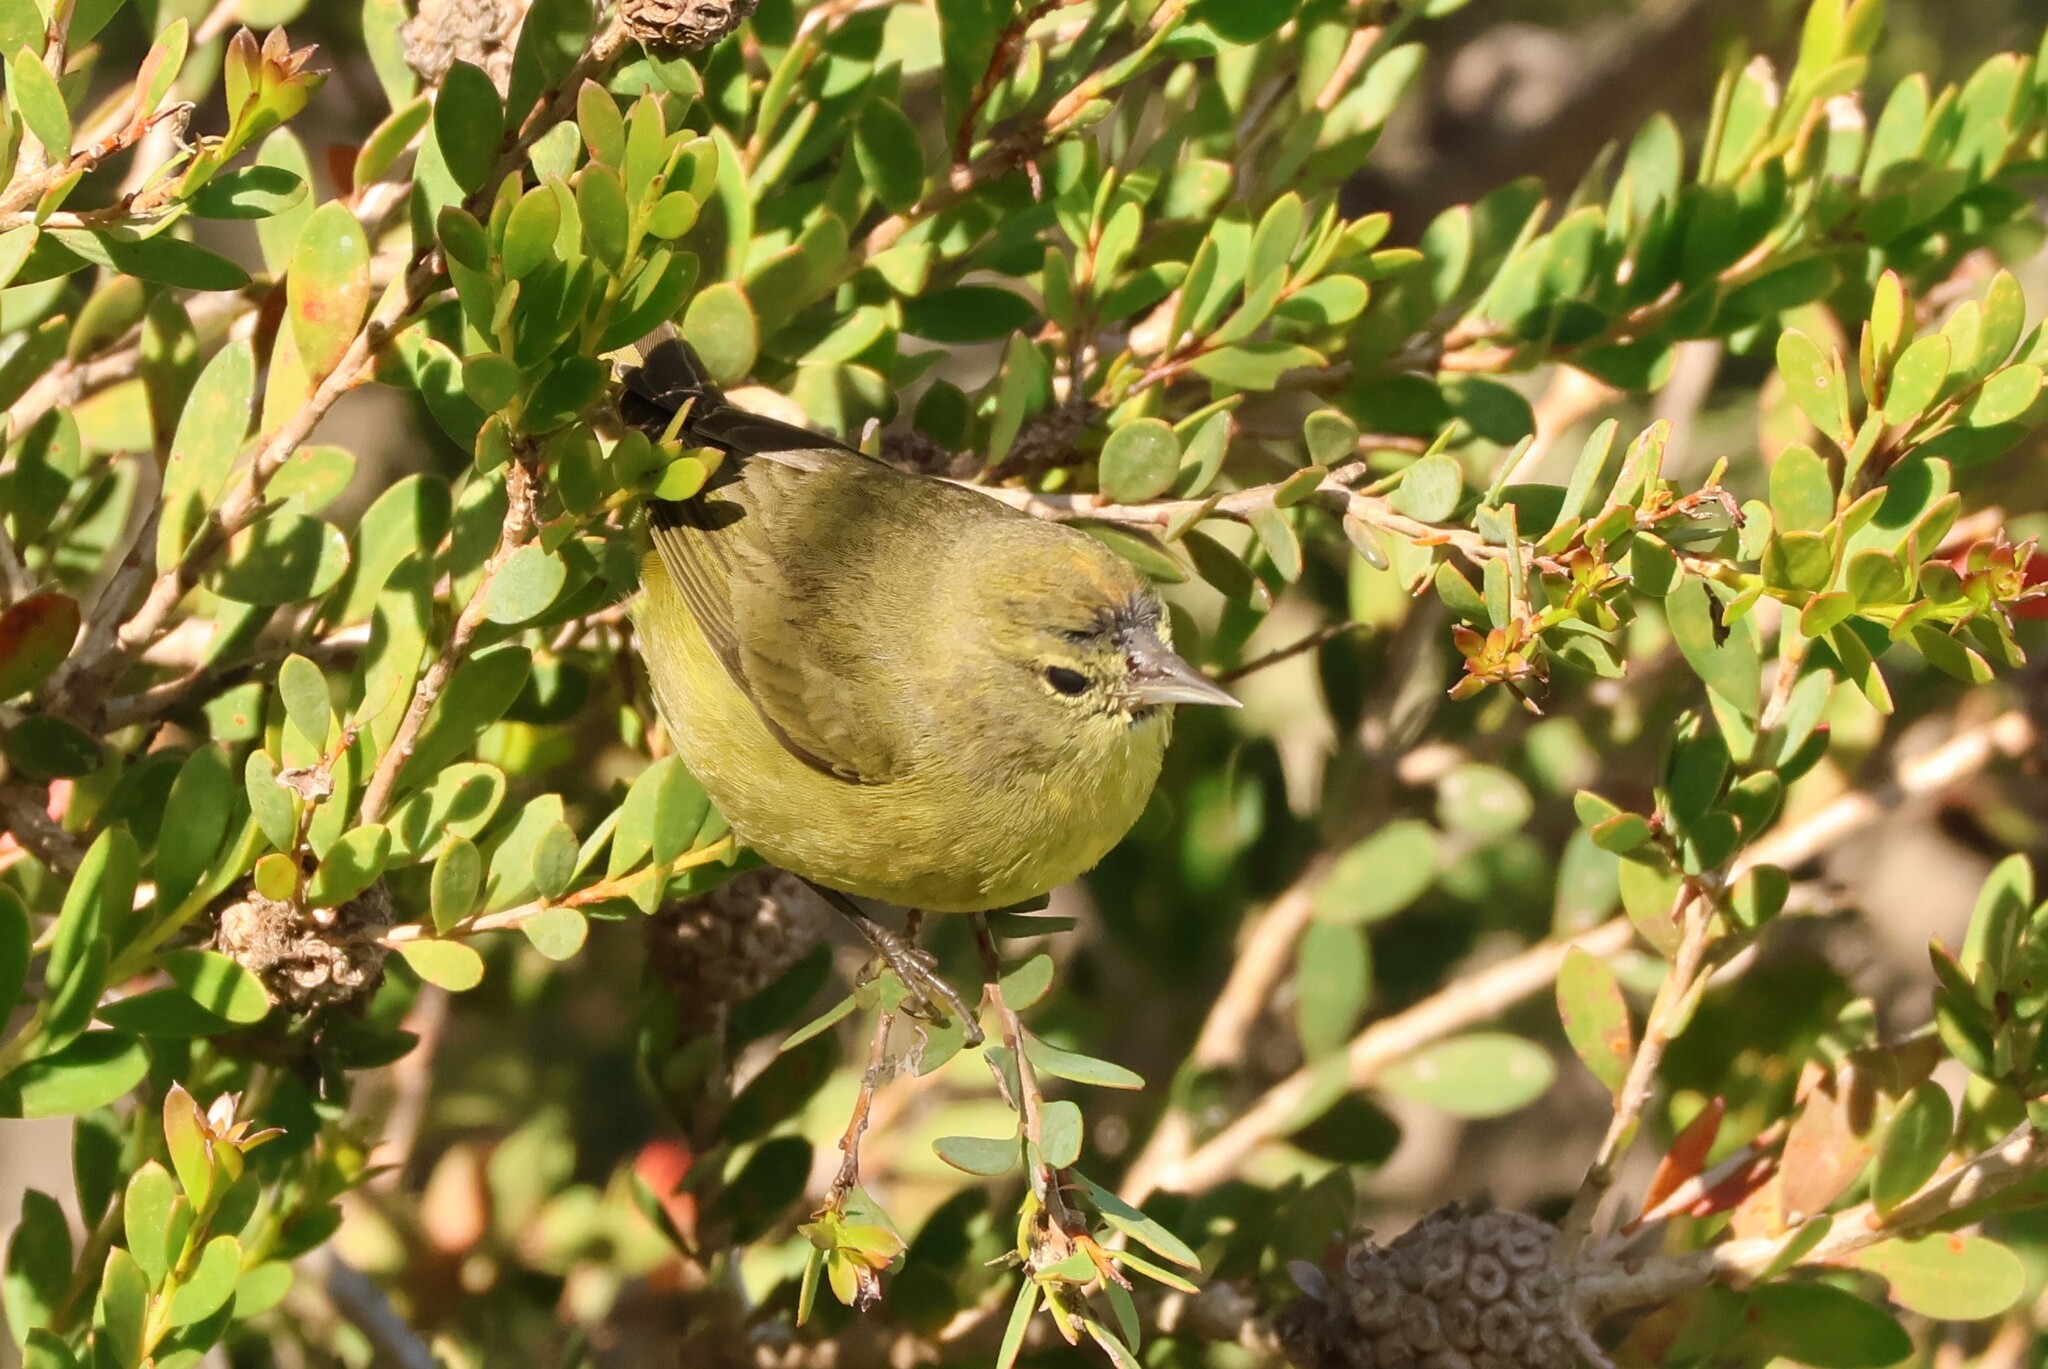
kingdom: Animalia
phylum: Chordata
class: Aves
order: Passeriformes
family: Parulidae
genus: Leiothlypis
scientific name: Leiothlypis celata
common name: Orange-crowned warbler
